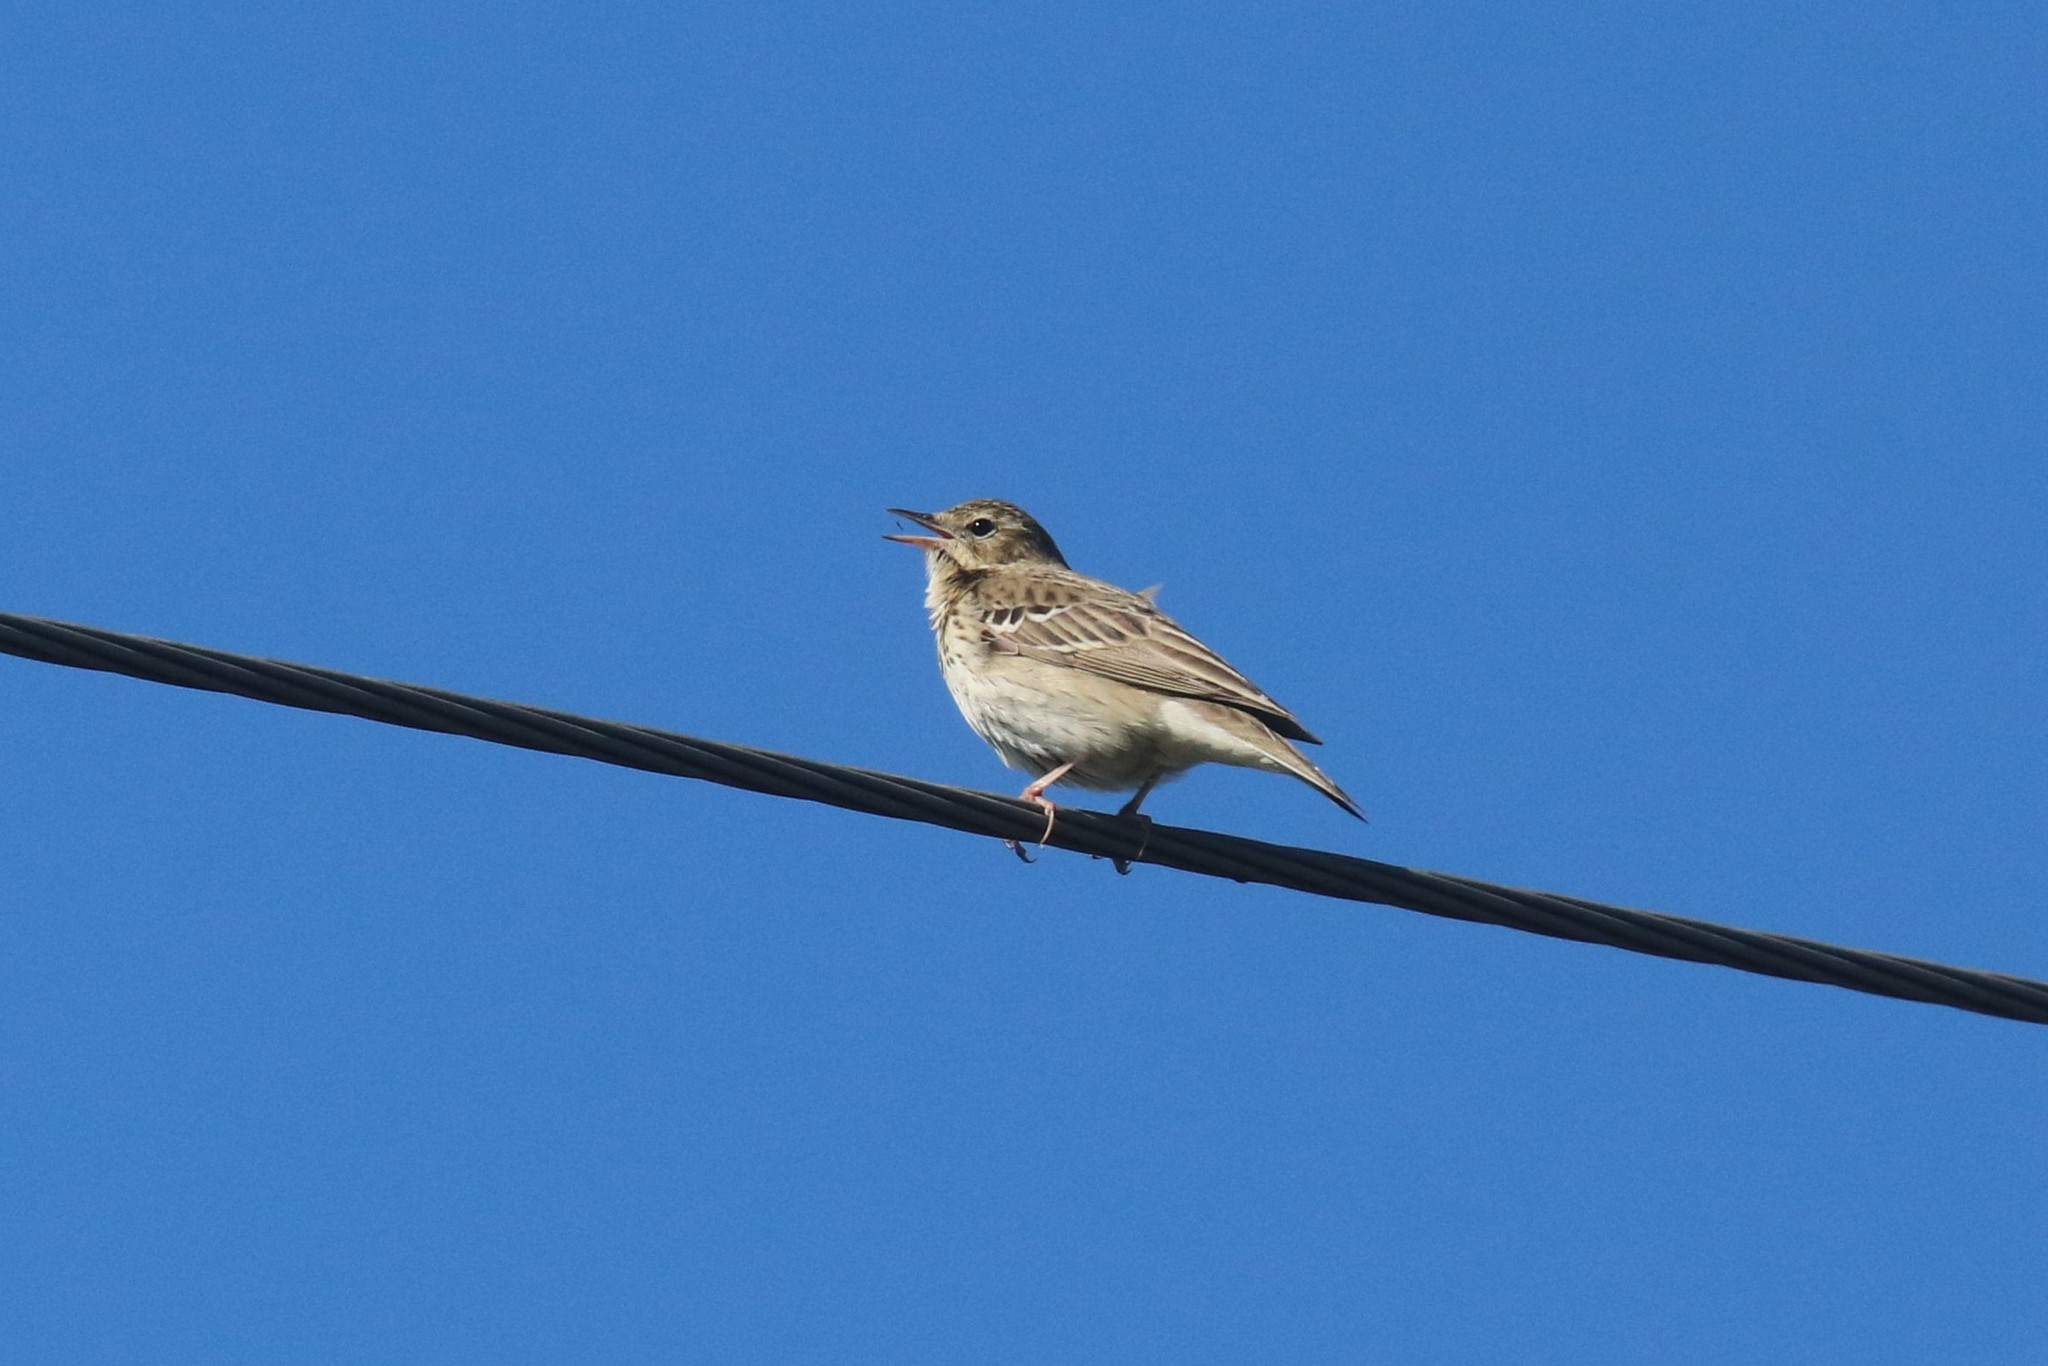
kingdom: Animalia
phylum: Chordata
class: Aves
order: Passeriformes
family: Motacillidae
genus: Anthus
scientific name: Anthus trivialis
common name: Tree pipit
